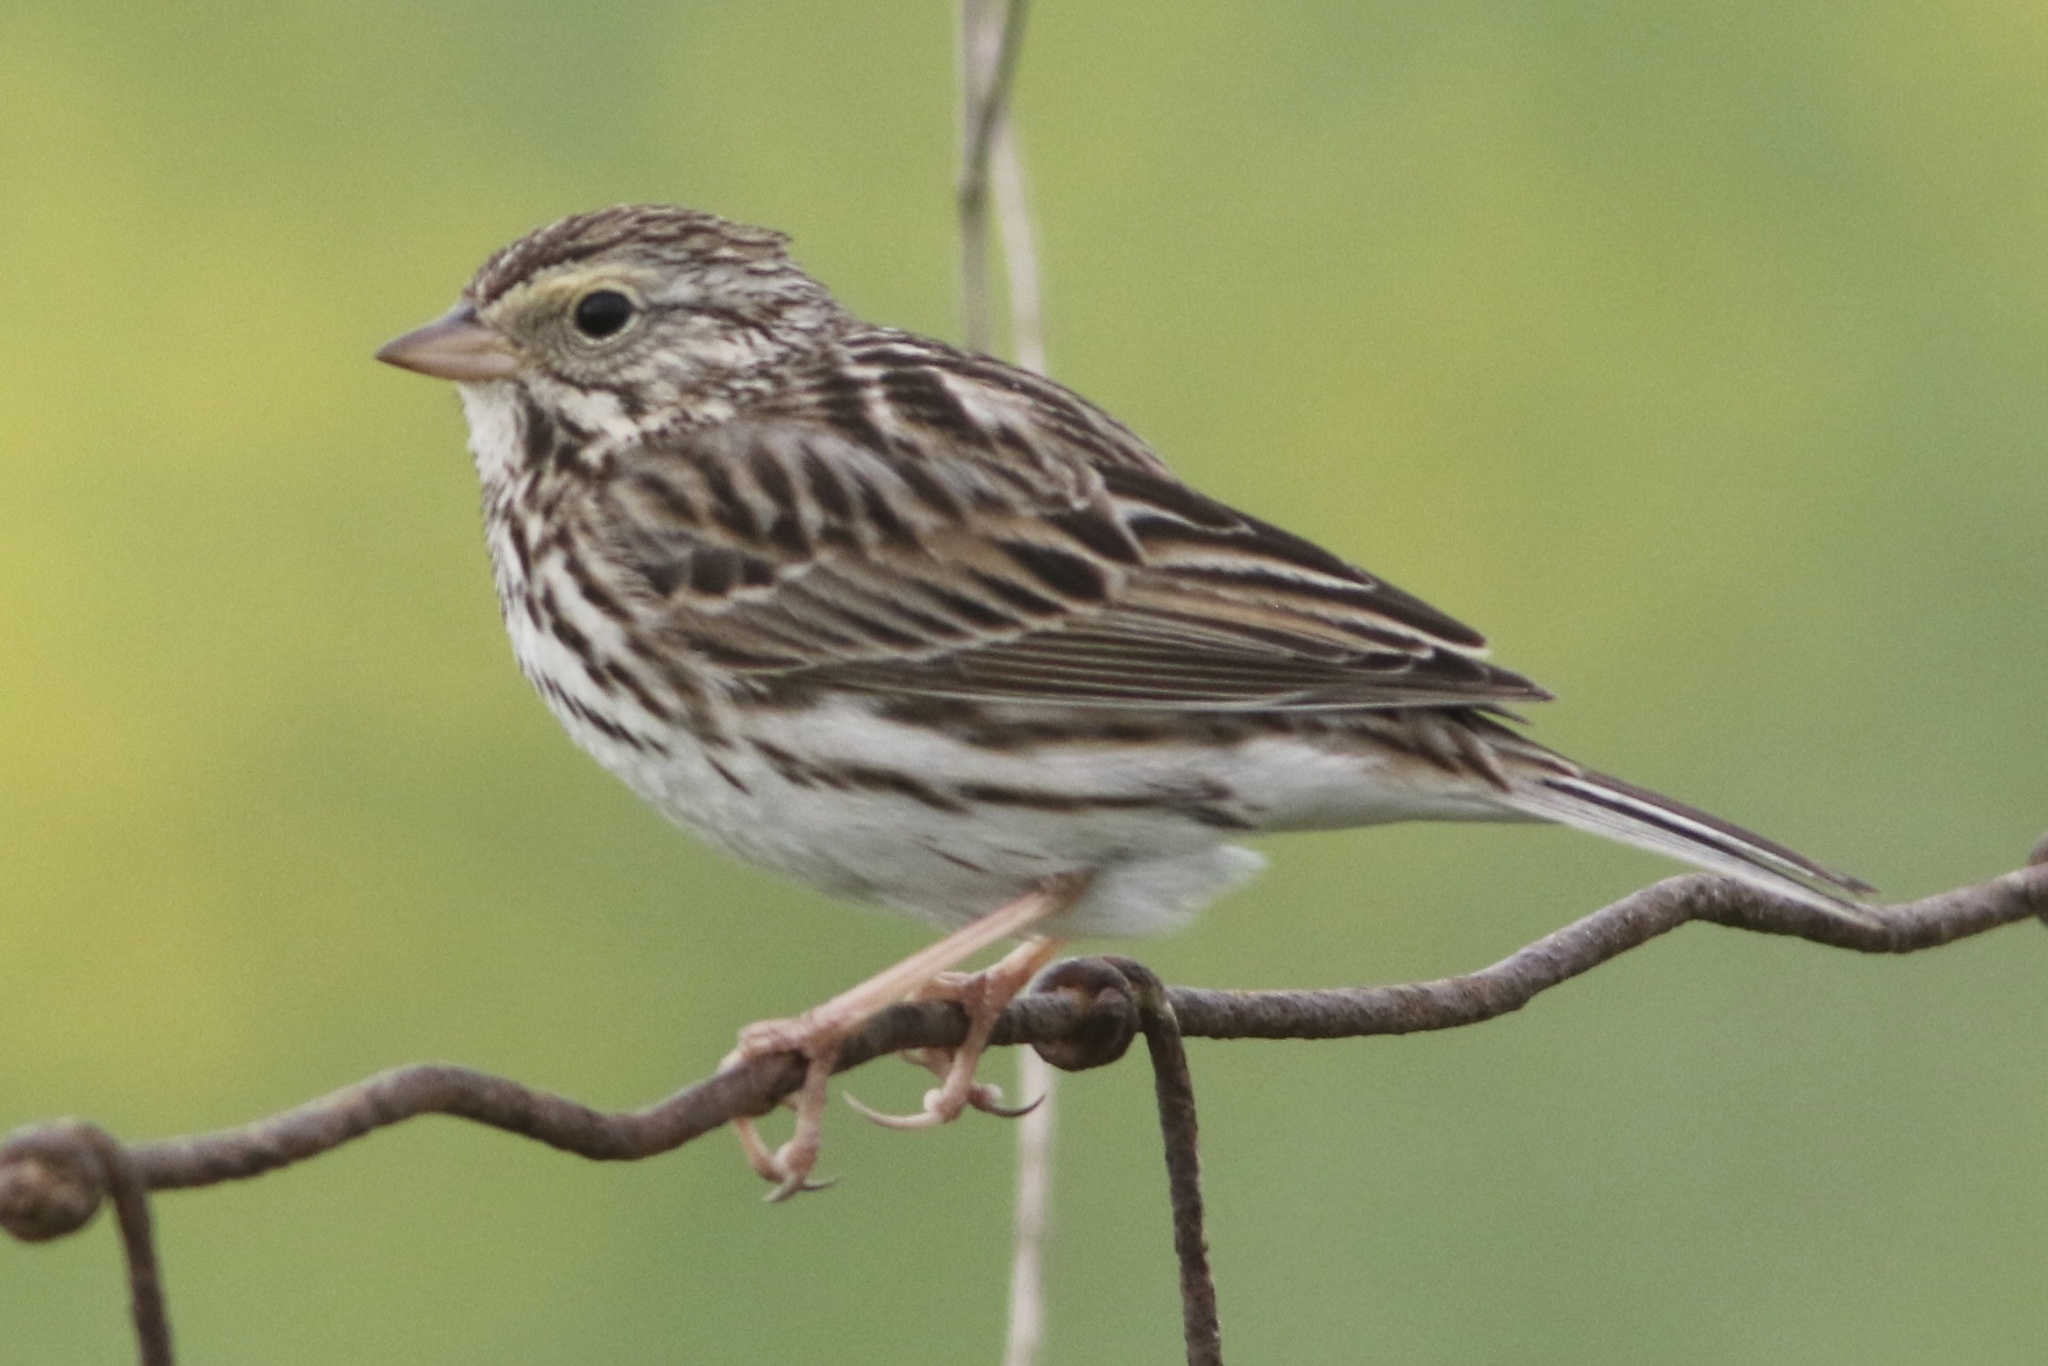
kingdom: Animalia
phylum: Chordata
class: Aves
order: Passeriformes
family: Passerellidae
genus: Passerculus
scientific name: Passerculus sandwichensis
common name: Savannah sparrow
